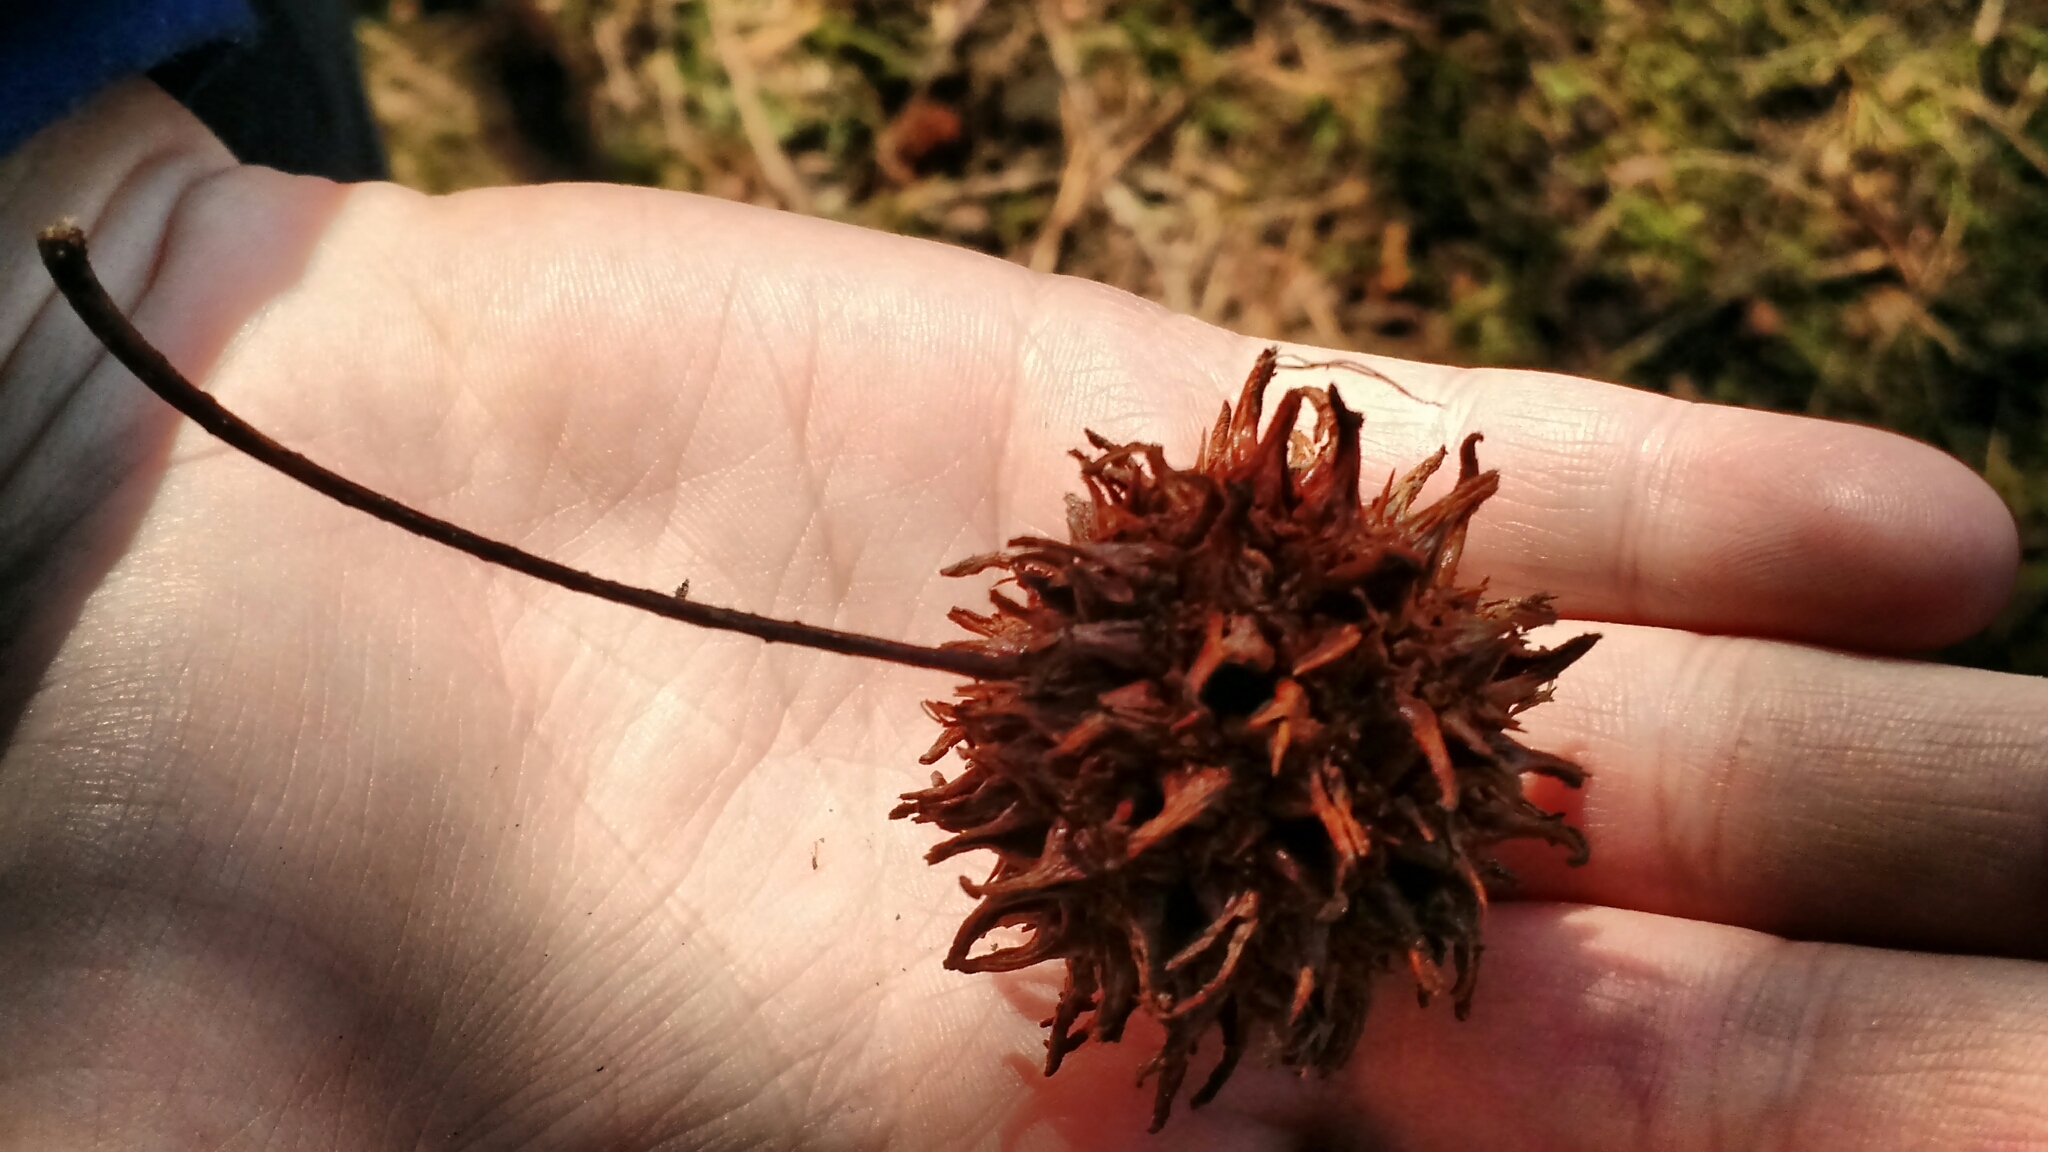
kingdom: Plantae
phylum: Tracheophyta
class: Magnoliopsida
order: Saxifragales
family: Altingiaceae
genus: Liquidambar
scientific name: Liquidambar styraciflua
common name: Sweet gum
